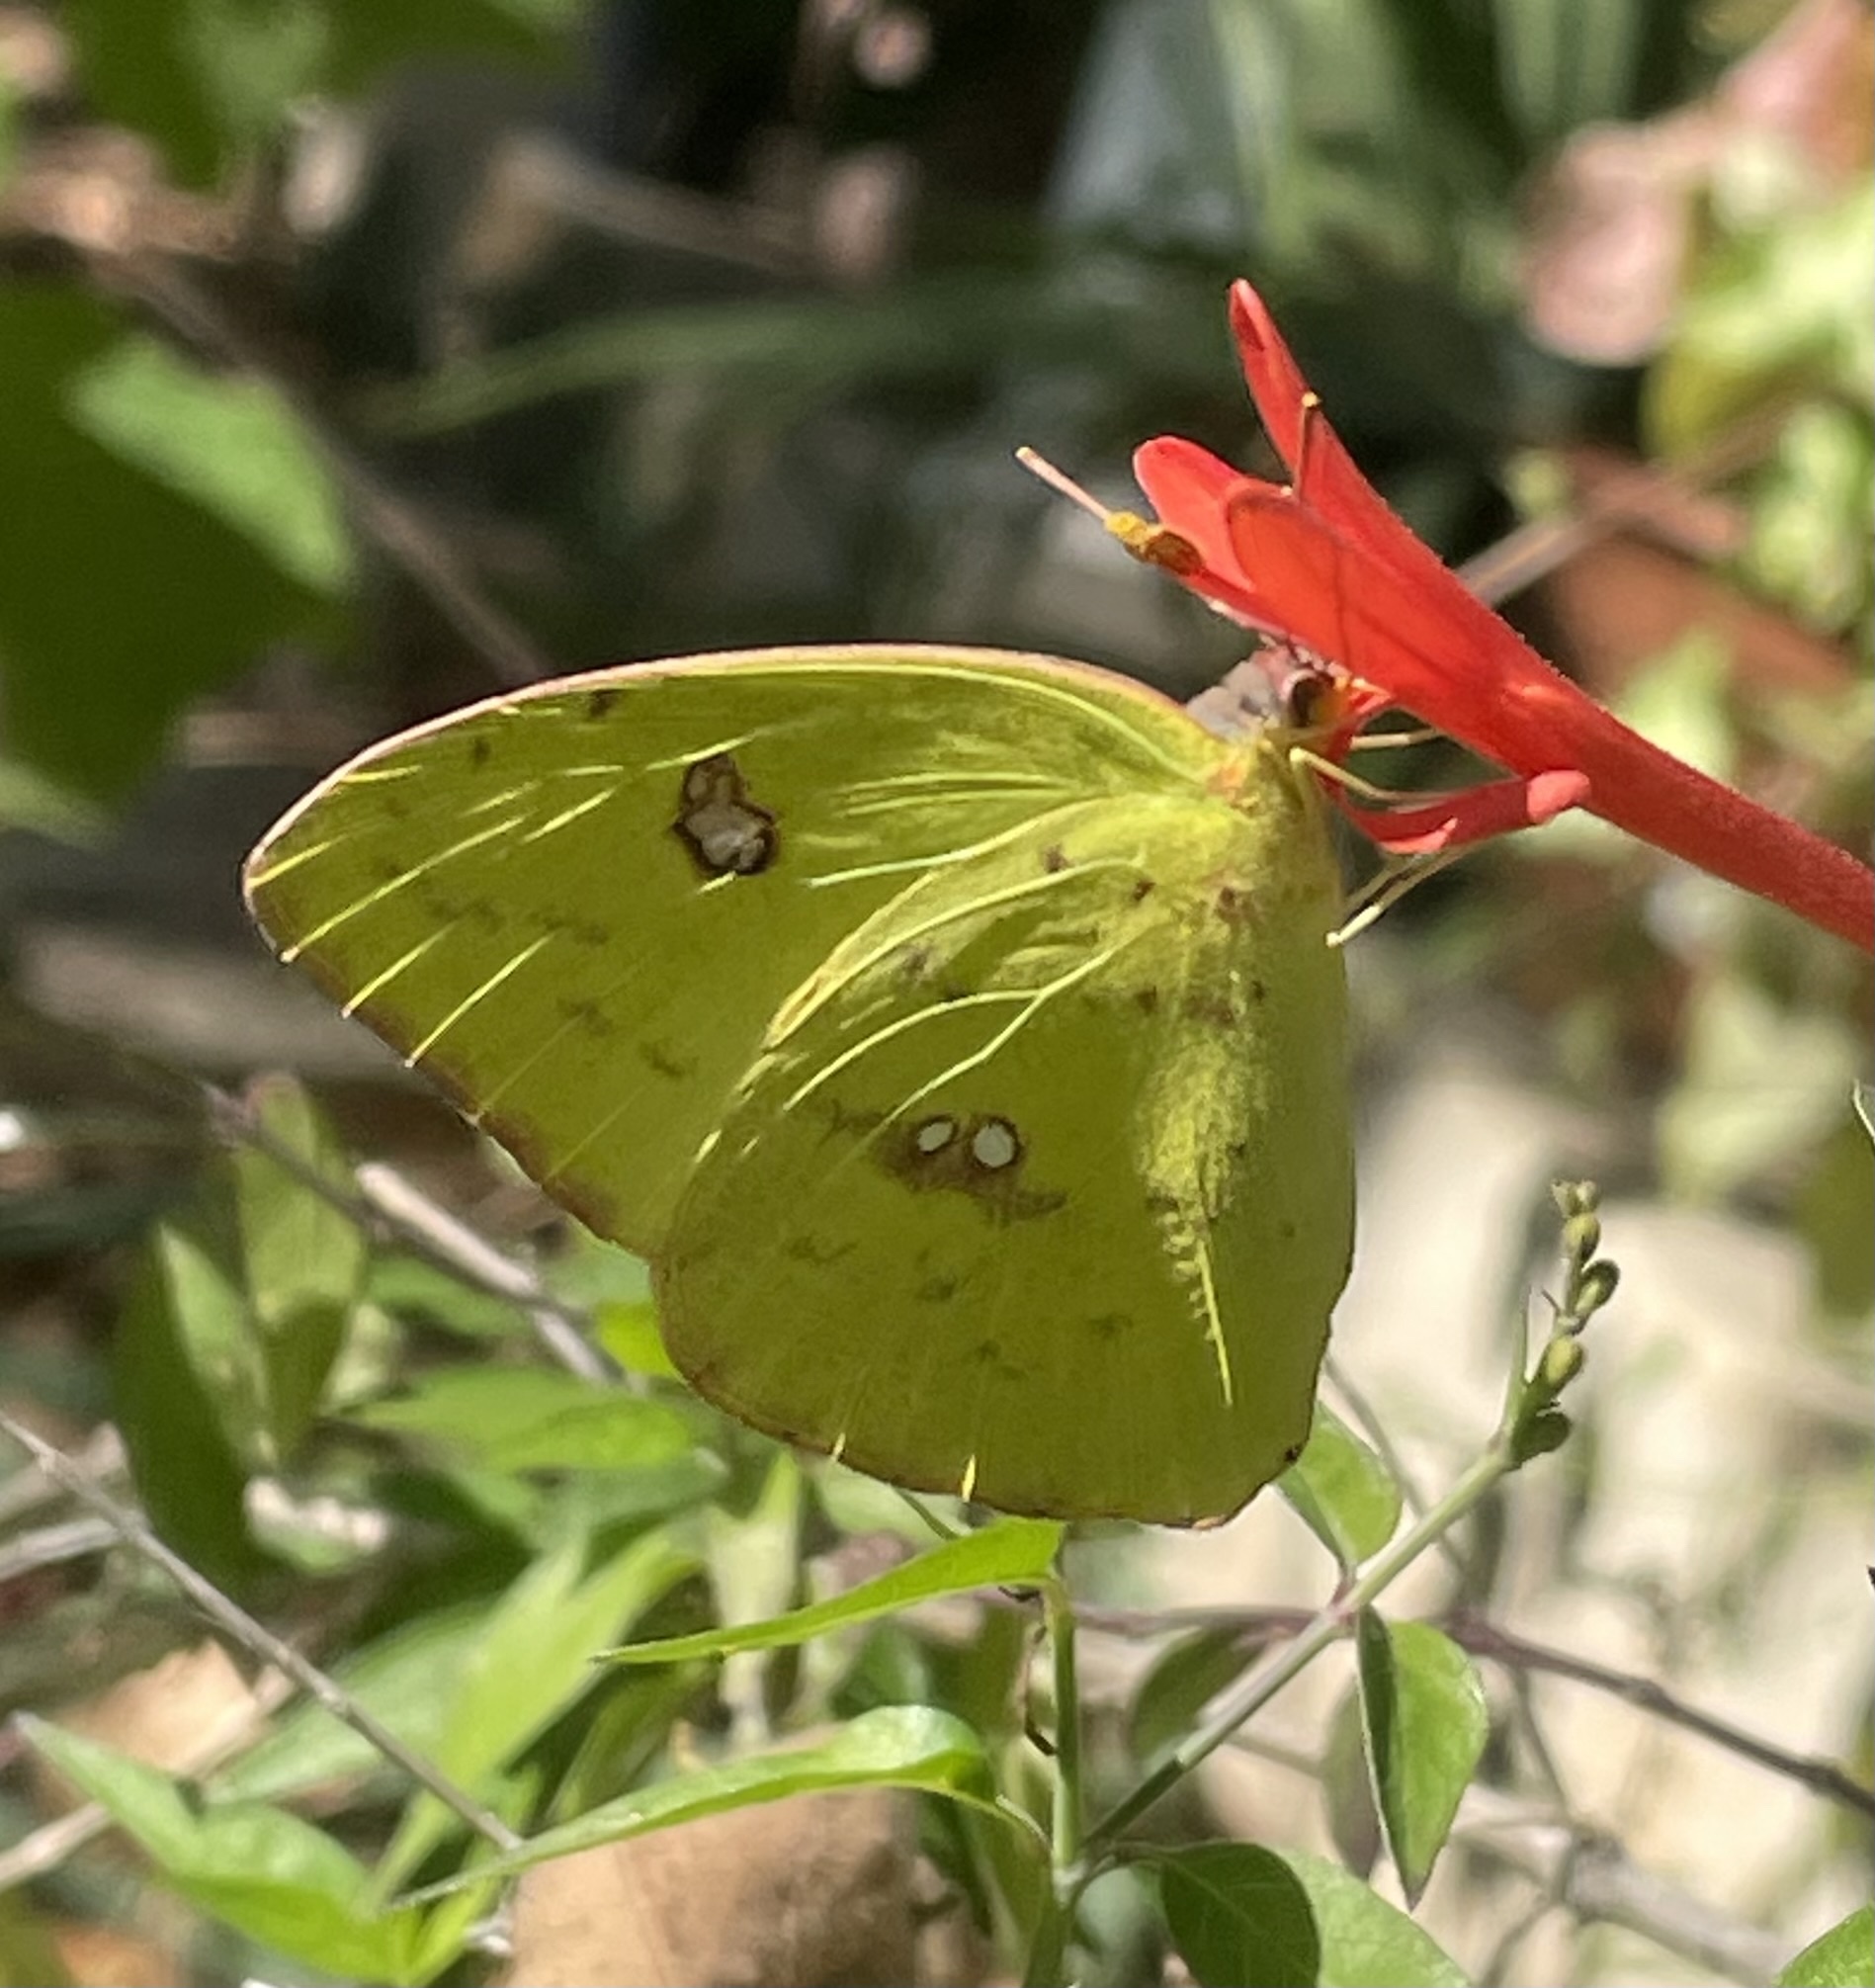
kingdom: Animalia
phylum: Arthropoda
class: Insecta
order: Lepidoptera
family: Pieridae
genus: Phoebis
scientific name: Phoebis sennae
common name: Cloudless sulphur
